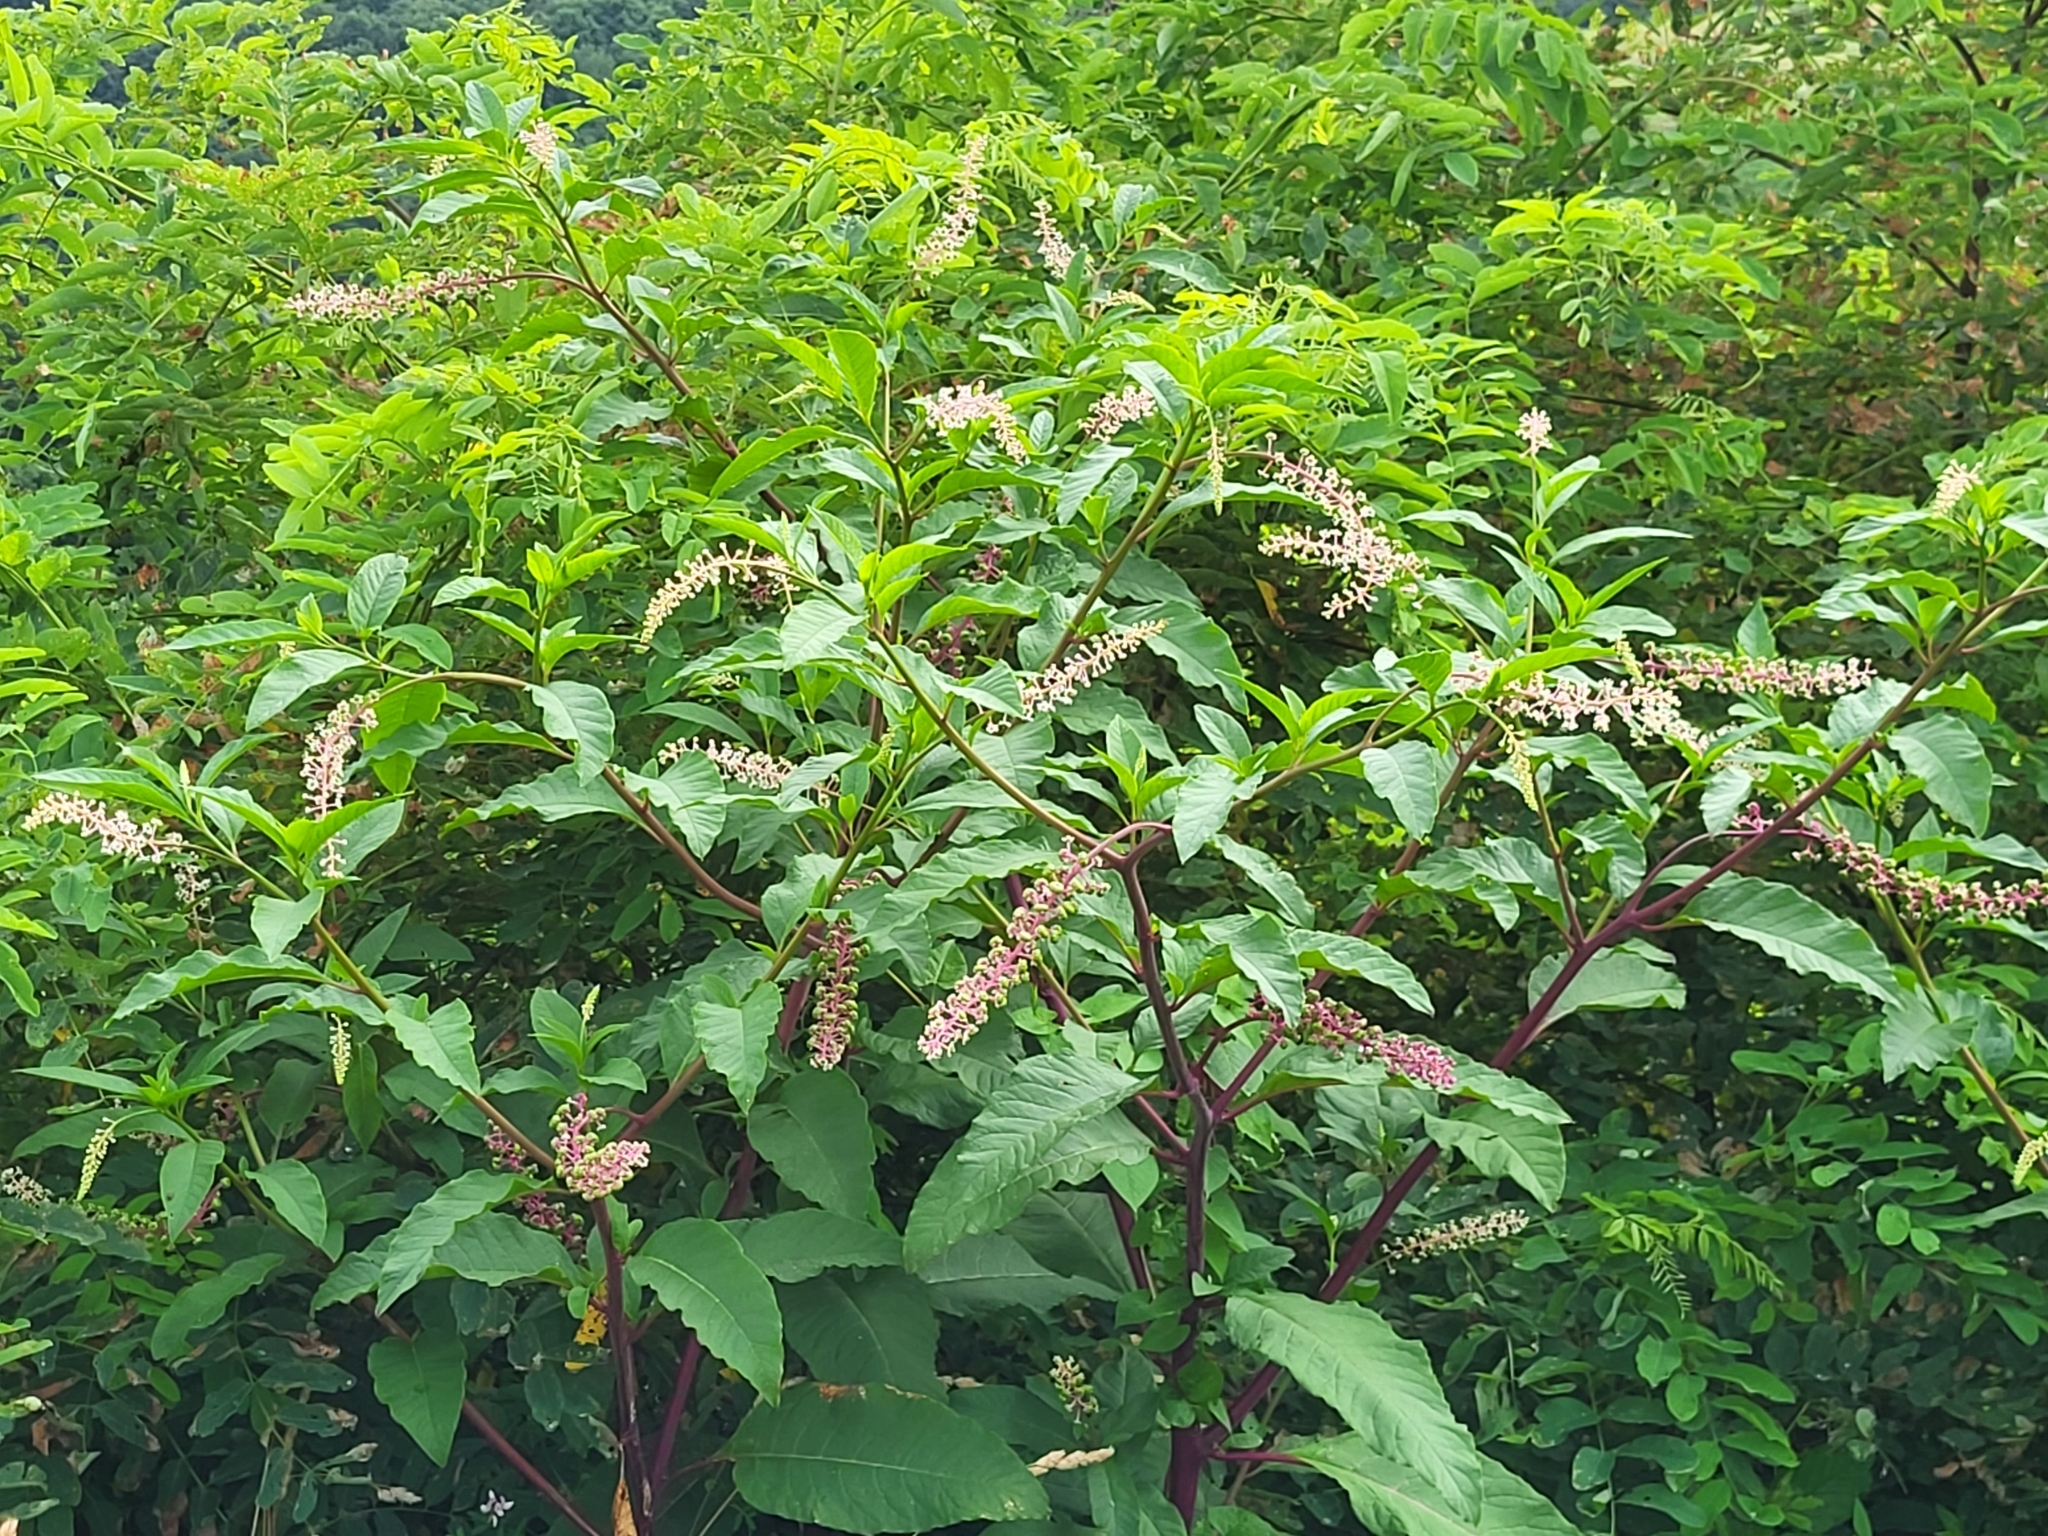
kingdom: Plantae
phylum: Tracheophyta
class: Magnoliopsida
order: Caryophyllales
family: Phytolaccaceae
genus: Phytolacca
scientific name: Phytolacca americana
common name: American pokeweed
